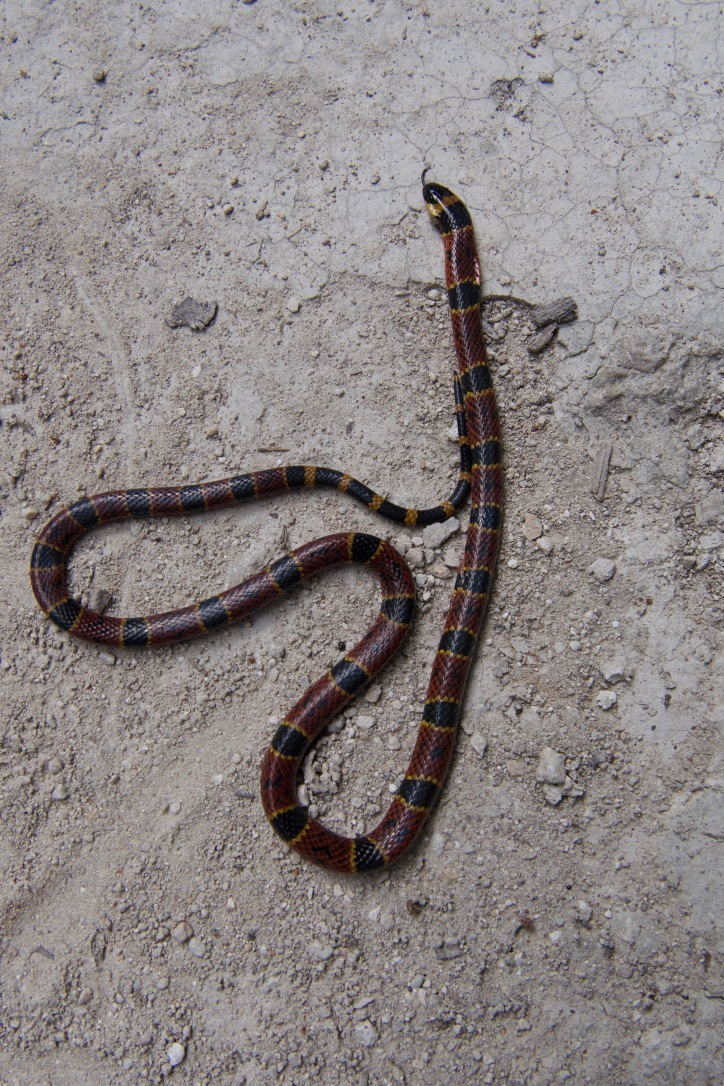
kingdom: Animalia
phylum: Chordata
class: Squamata
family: Elapidae
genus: Micrurus
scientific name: Micrurus diastema
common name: Diastema coral snake
